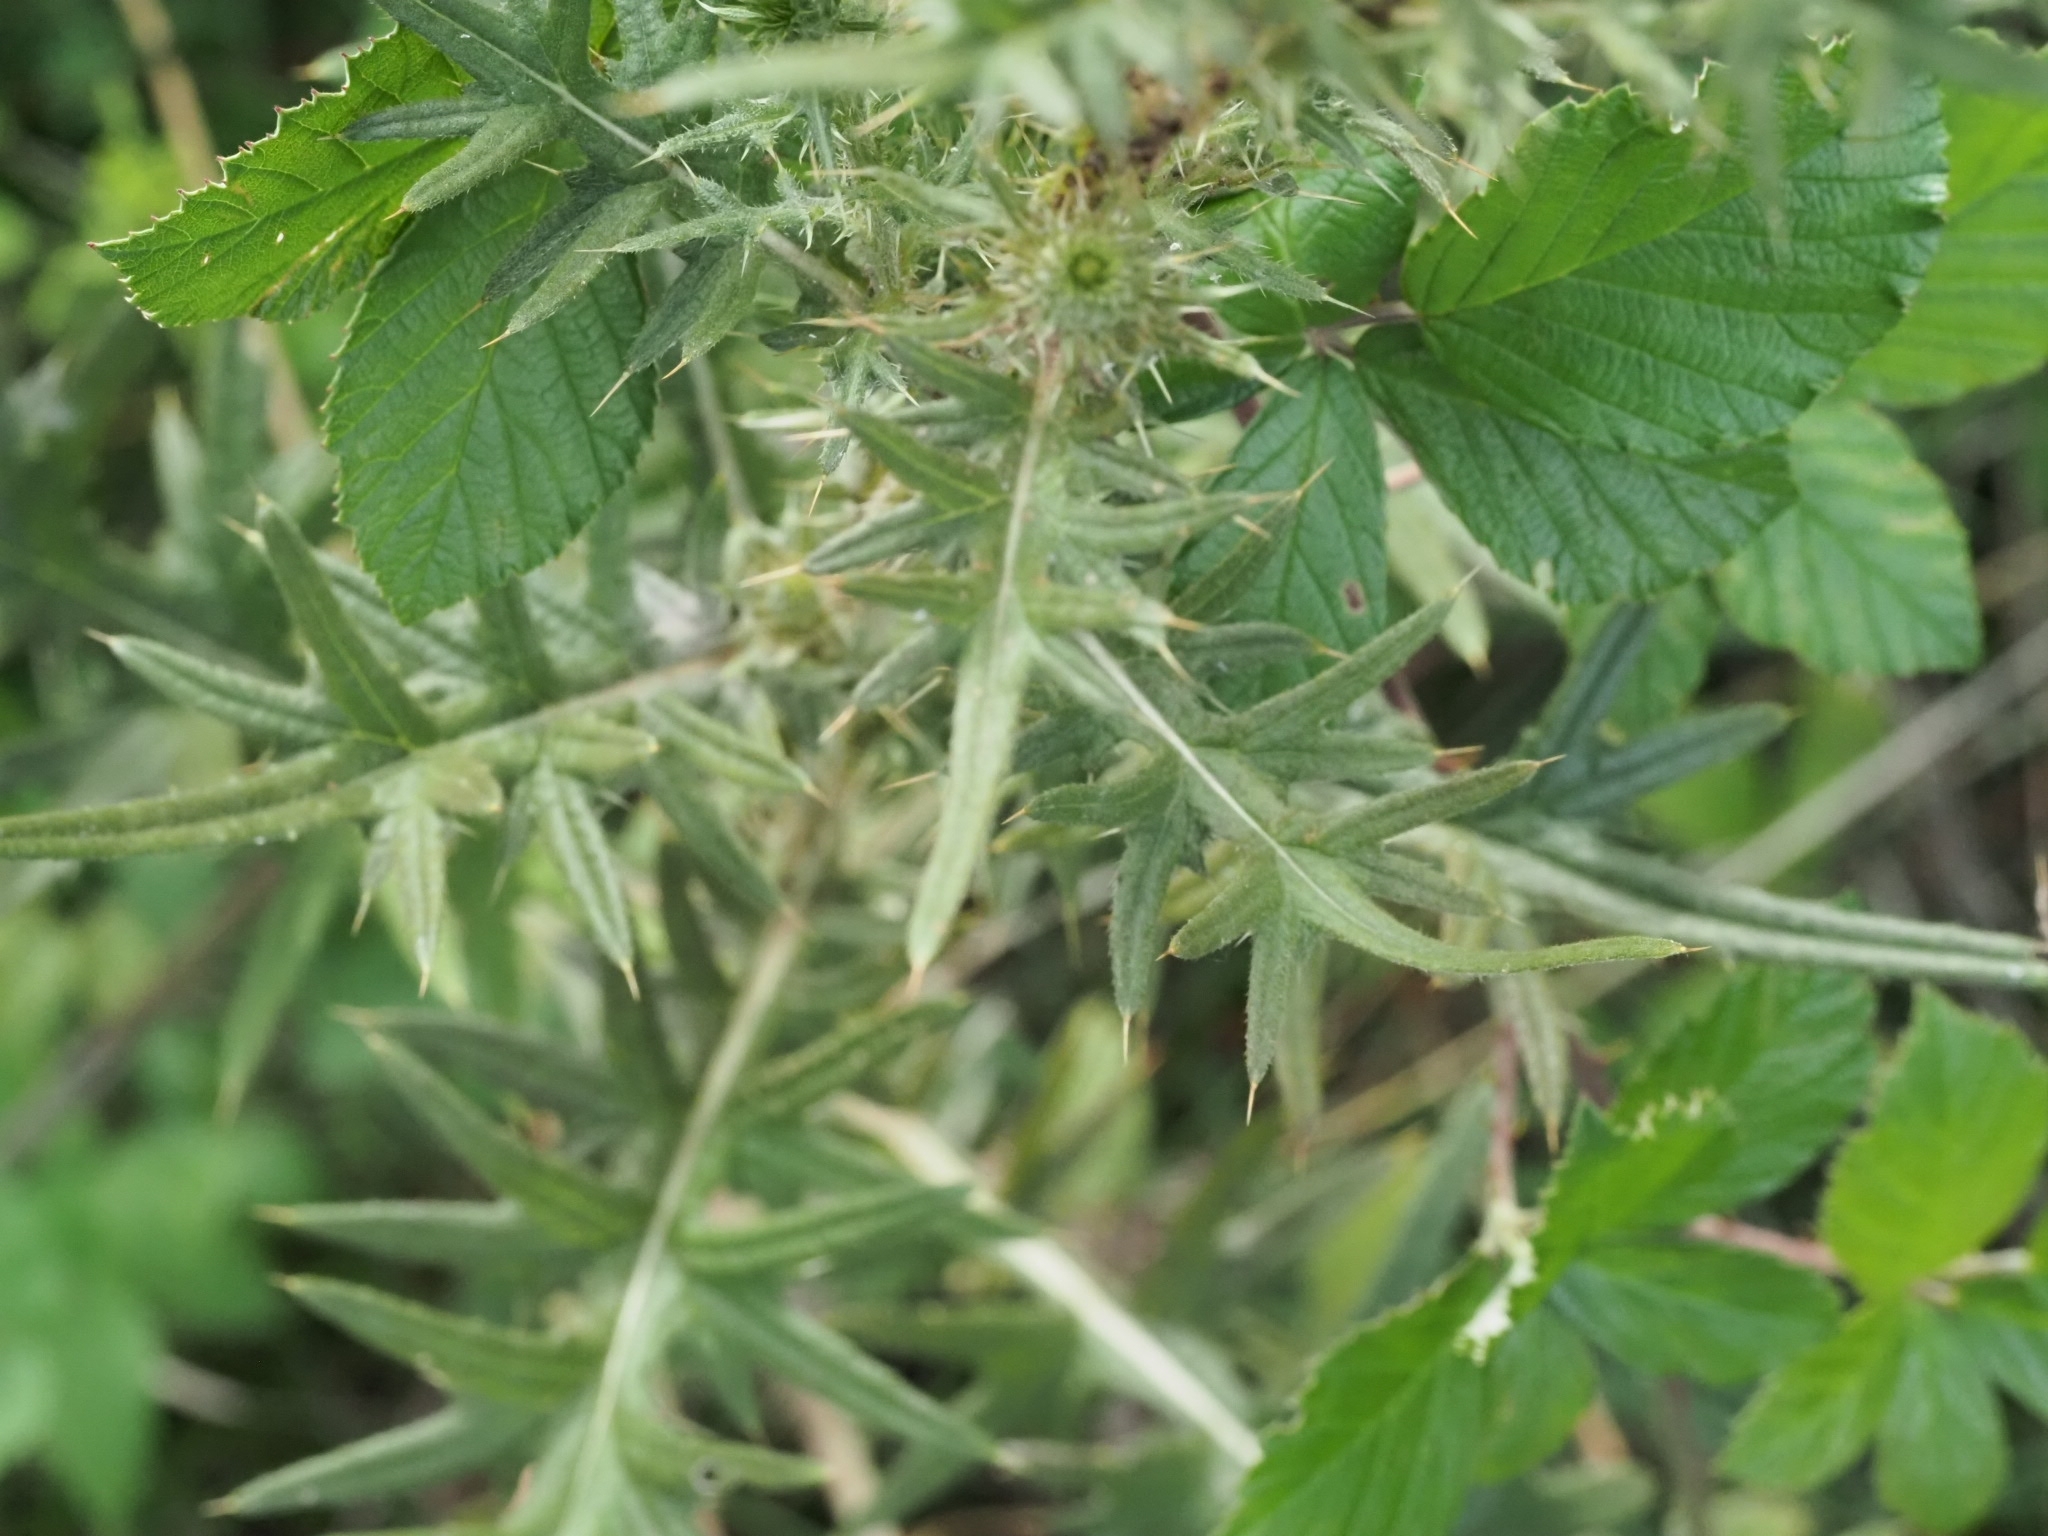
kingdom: Plantae
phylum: Tracheophyta
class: Magnoliopsida
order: Asterales
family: Asteraceae
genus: Cirsium
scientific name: Cirsium vulgare
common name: Bull thistle
